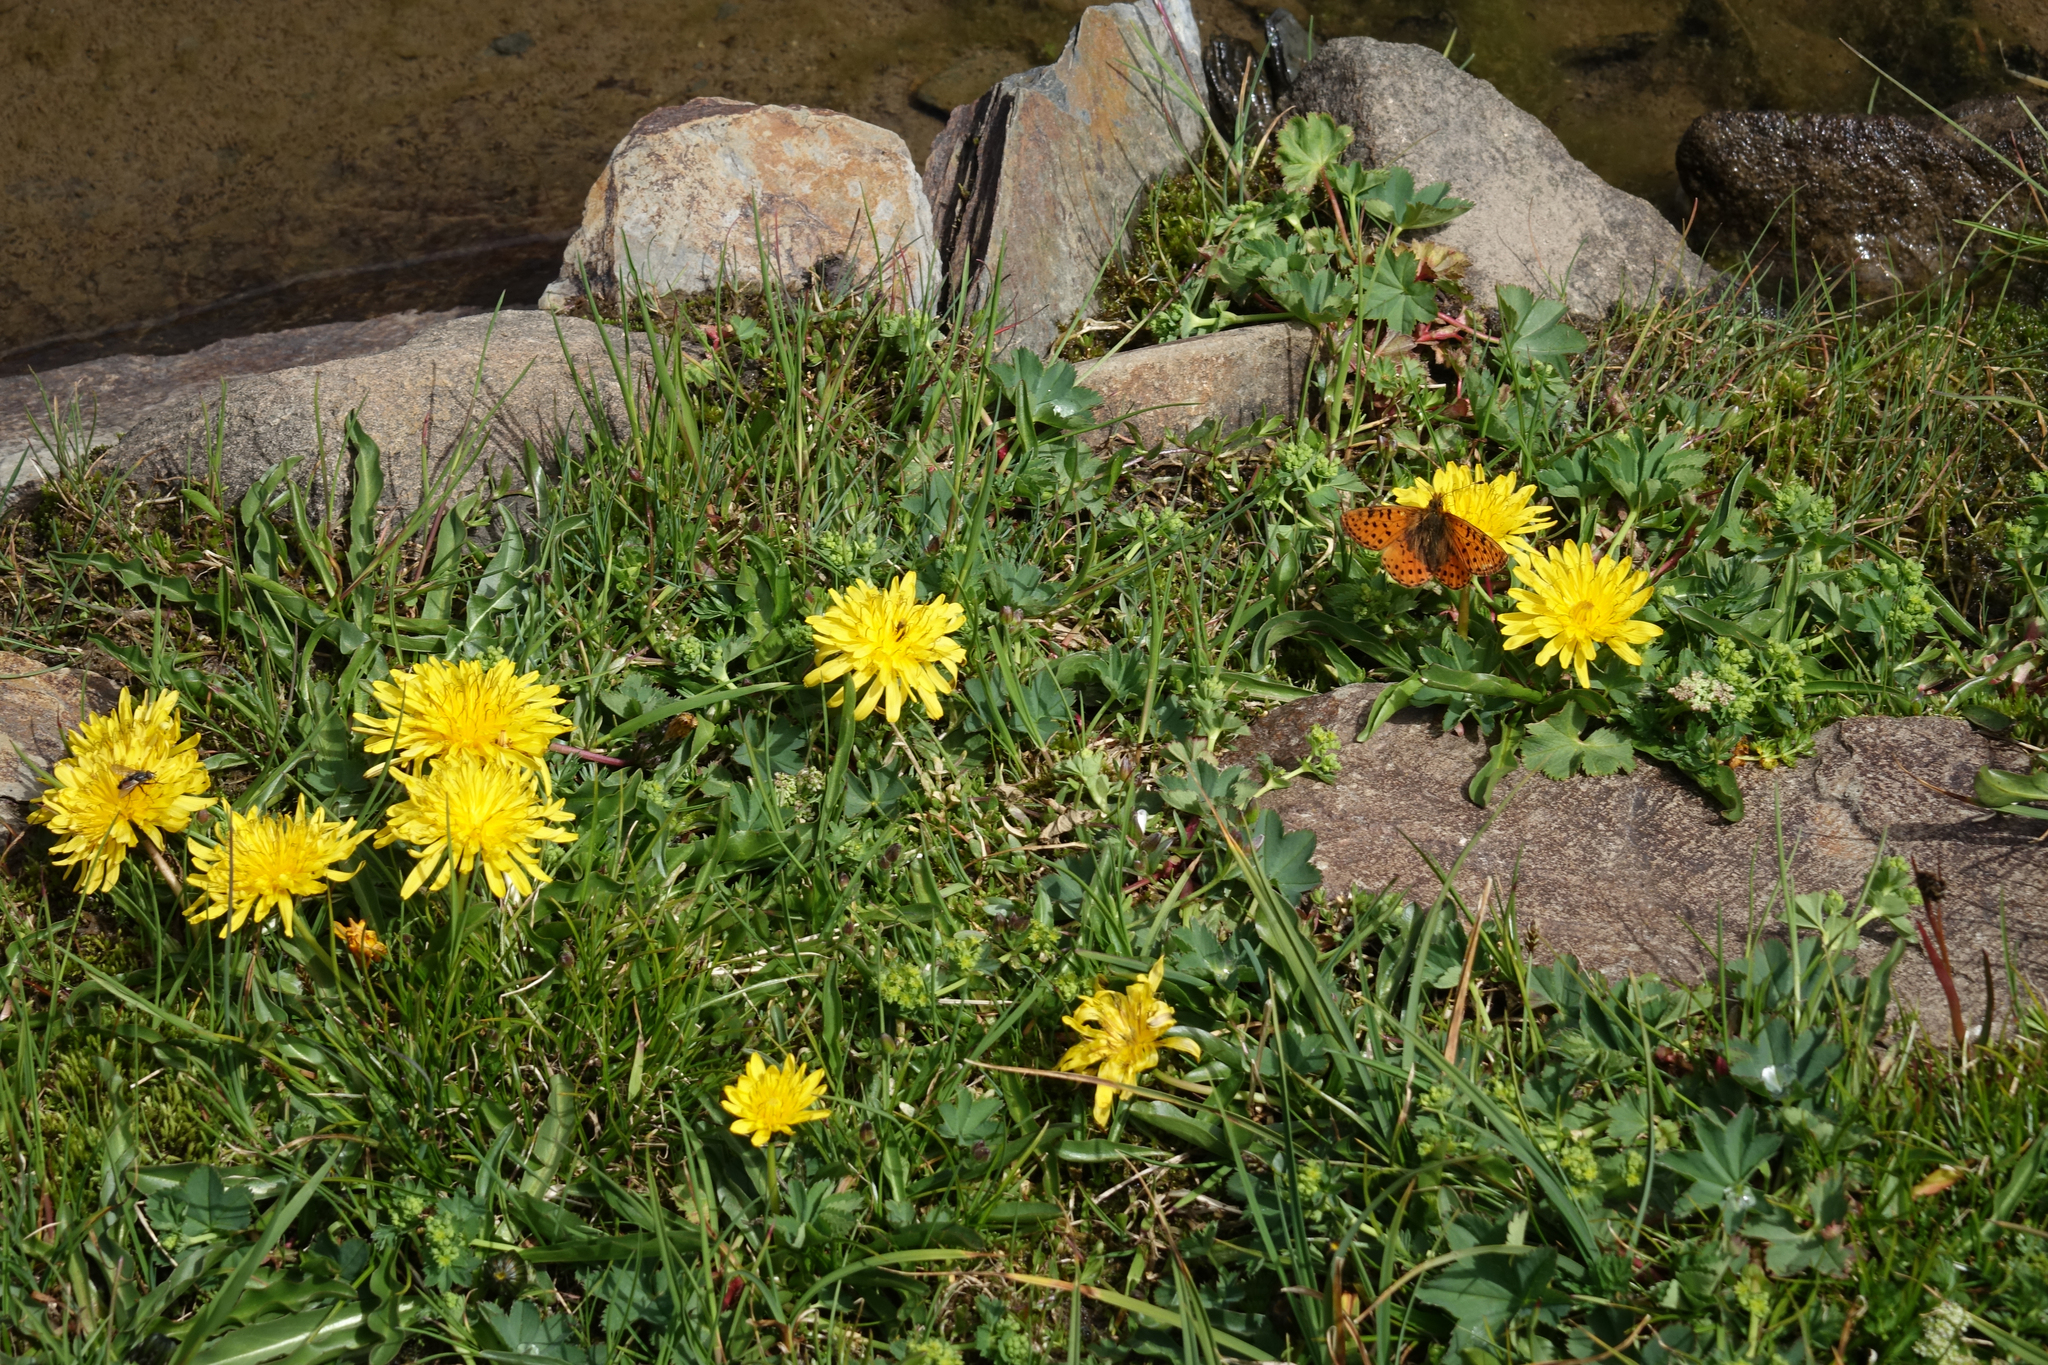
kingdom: Animalia
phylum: Arthropoda
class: Insecta
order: Lepidoptera
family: Nymphalidae
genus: Boloria
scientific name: Boloria caucasica
